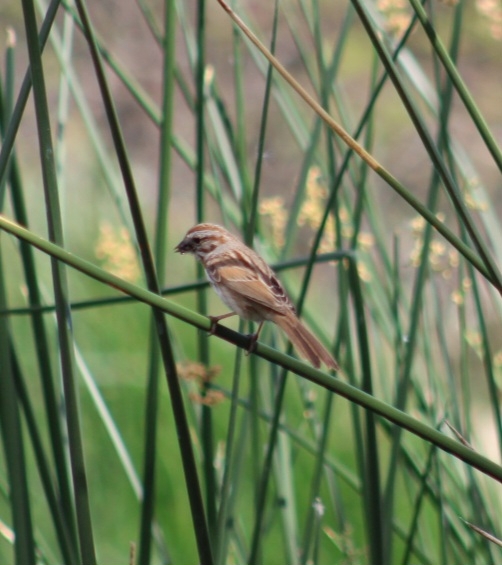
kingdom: Animalia
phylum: Chordata
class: Aves
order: Passeriformes
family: Passerellidae
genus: Melospiza
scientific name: Melospiza melodia
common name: Song sparrow
